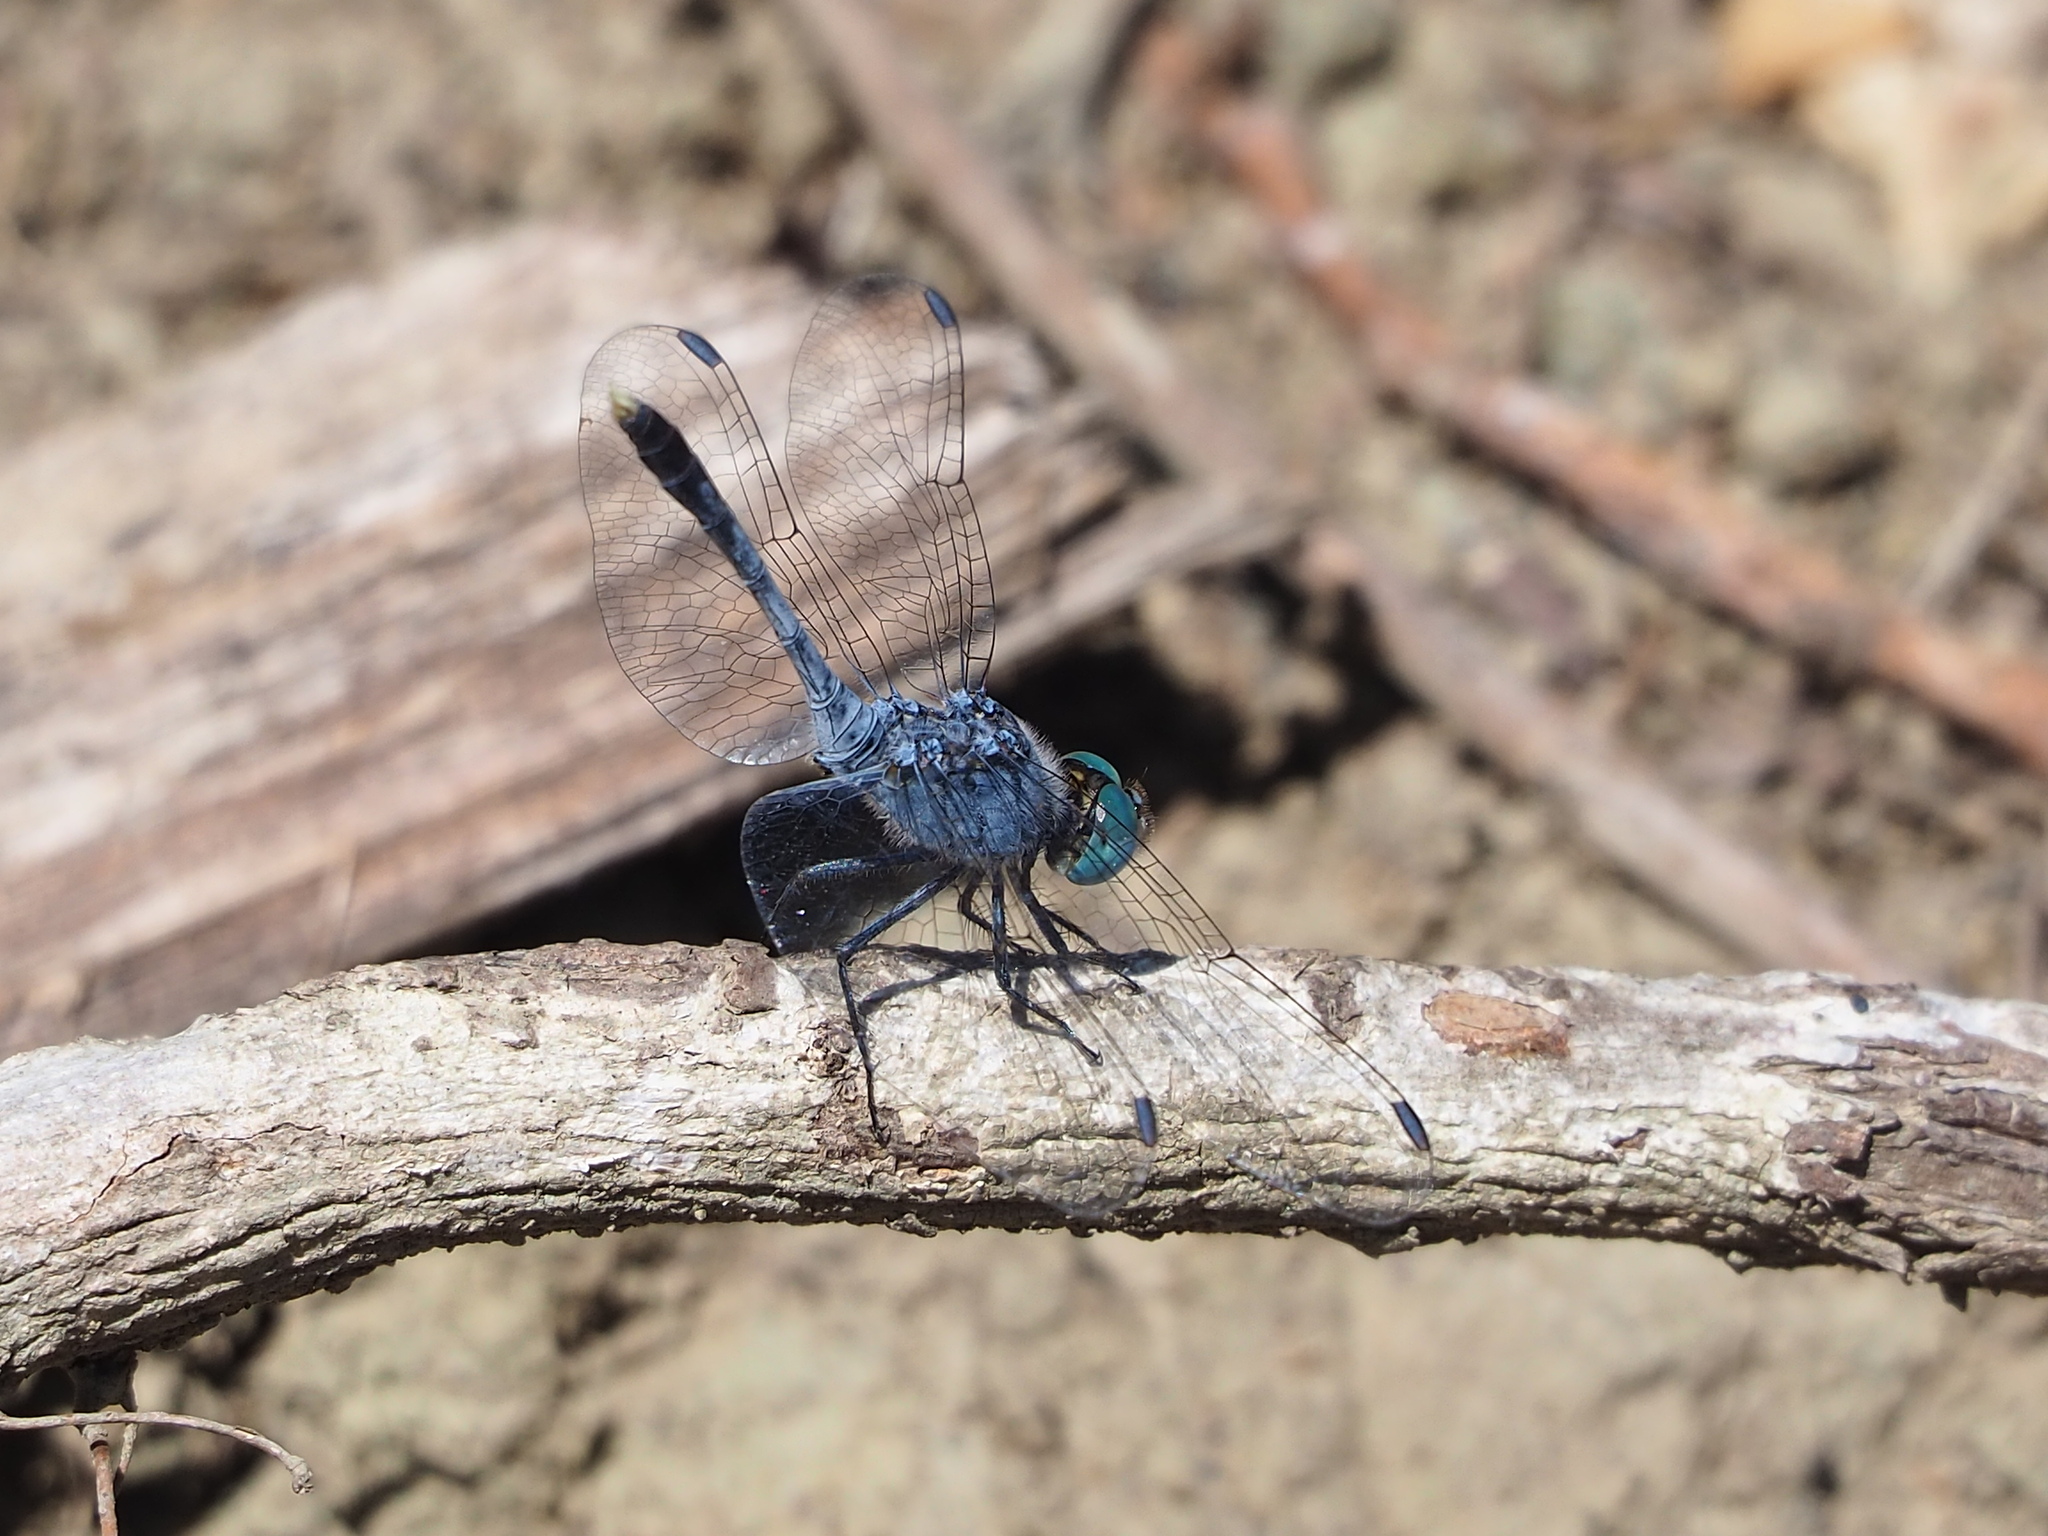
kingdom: Animalia
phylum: Arthropoda
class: Insecta
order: Odonata
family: Libellulidae
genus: Diplacodes
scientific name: Diplacodes trivialis
